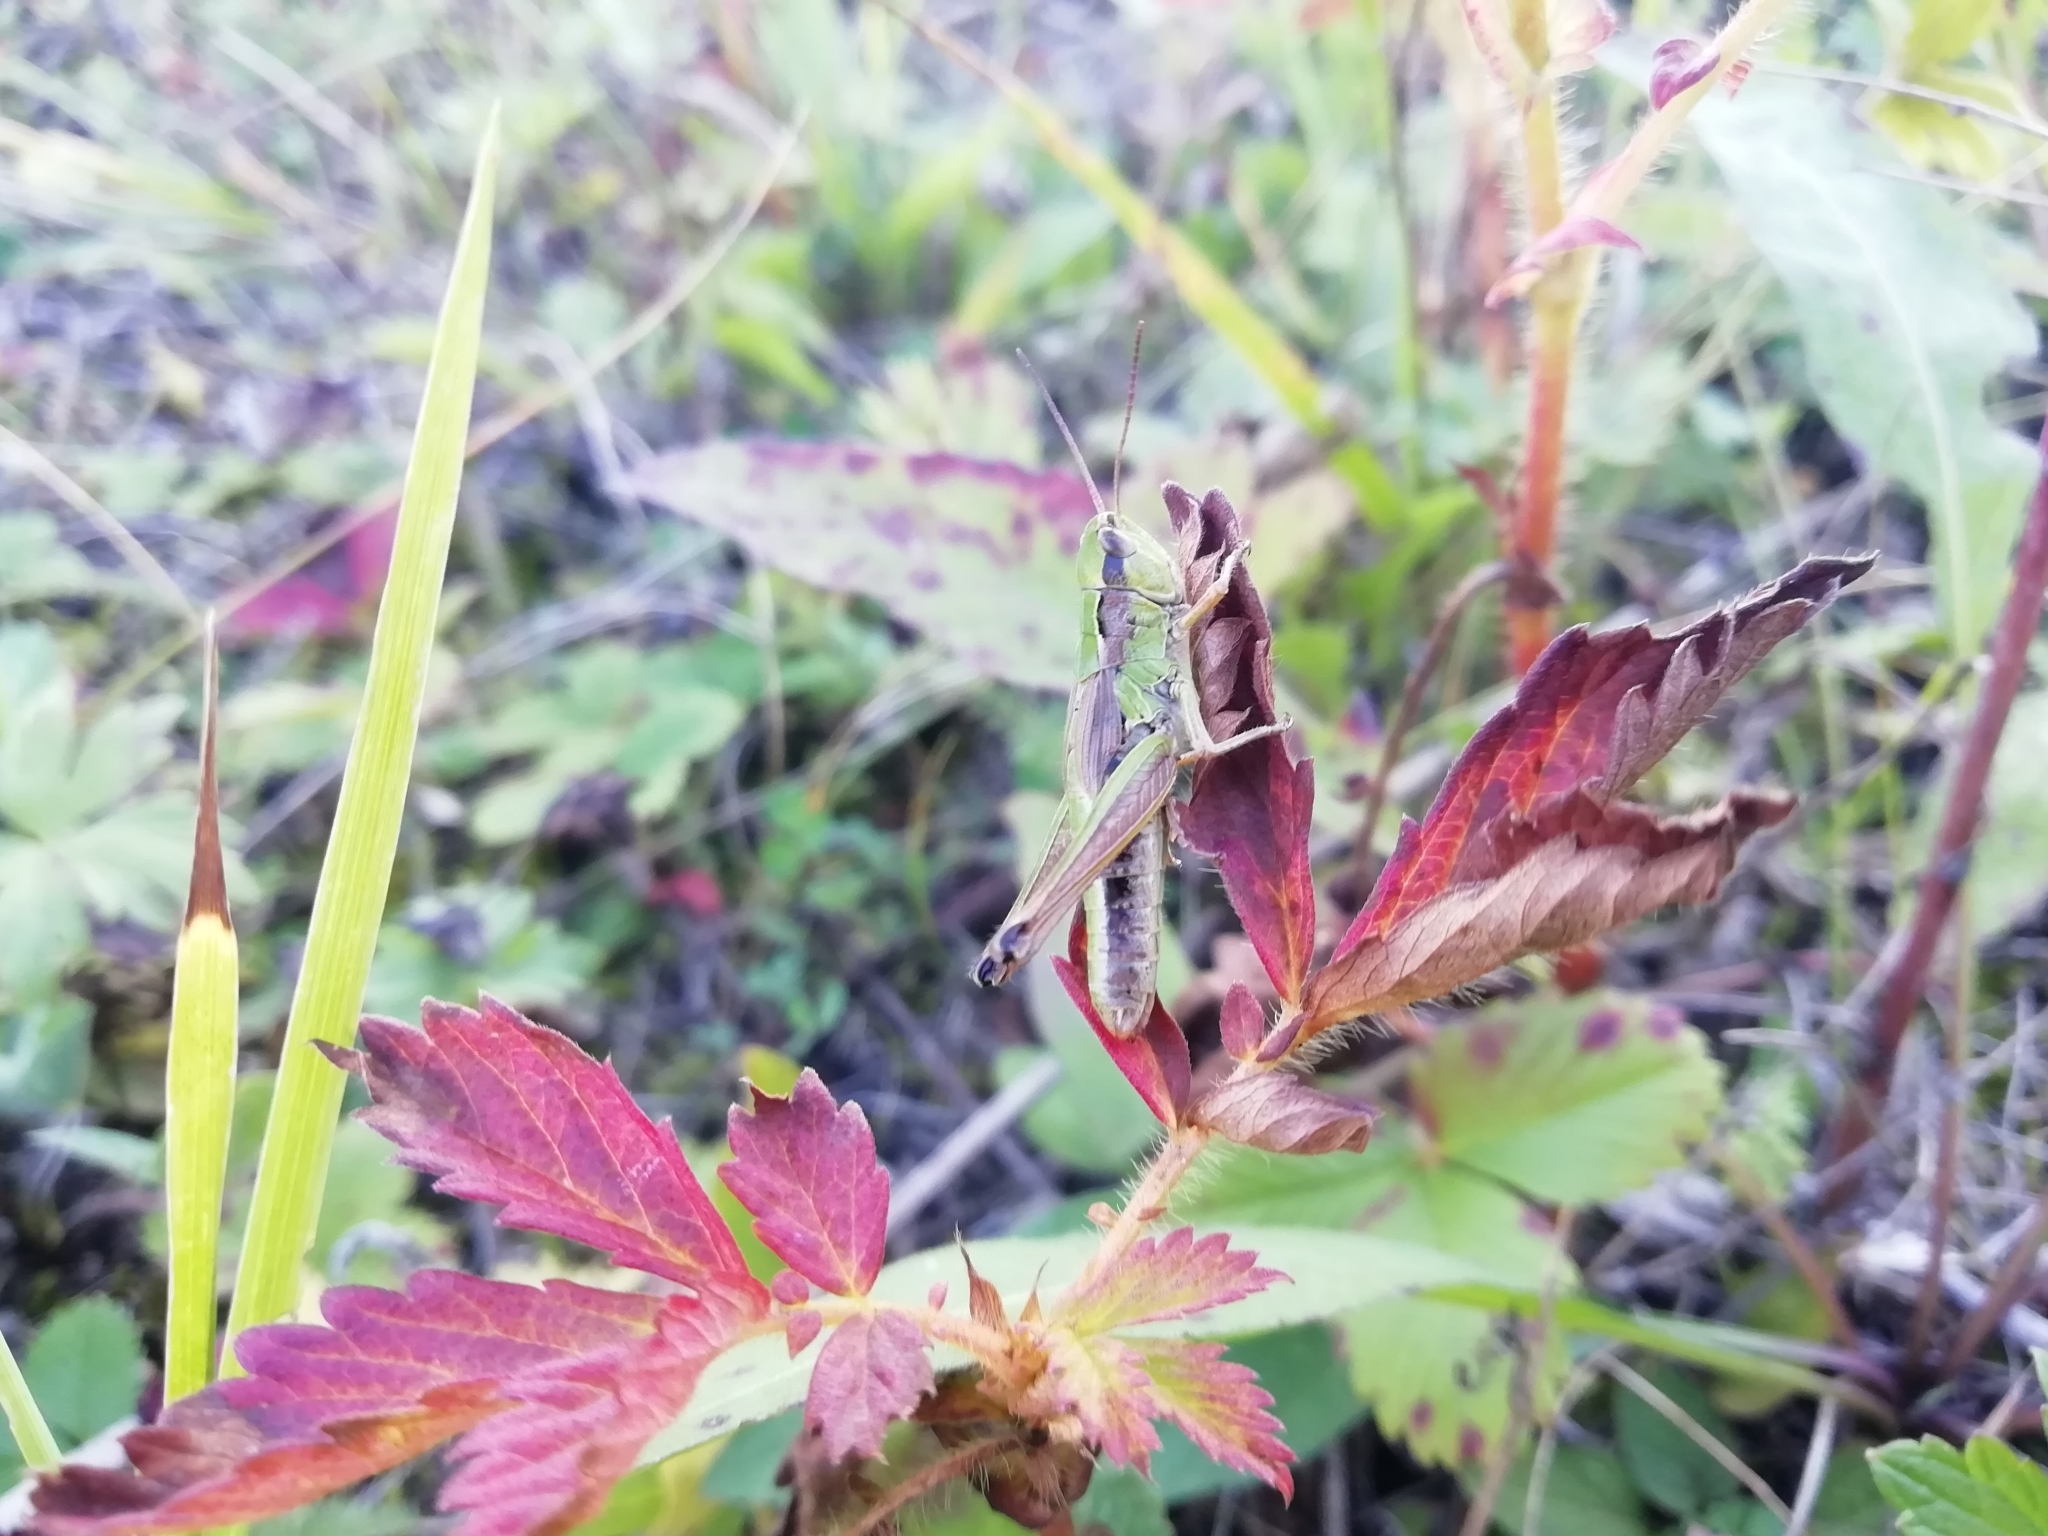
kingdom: Animalia
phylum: Arthropoda
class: Insecta
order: Orthoptera
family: Acrididae
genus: Chorthippus
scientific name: Chorthippus fallax
